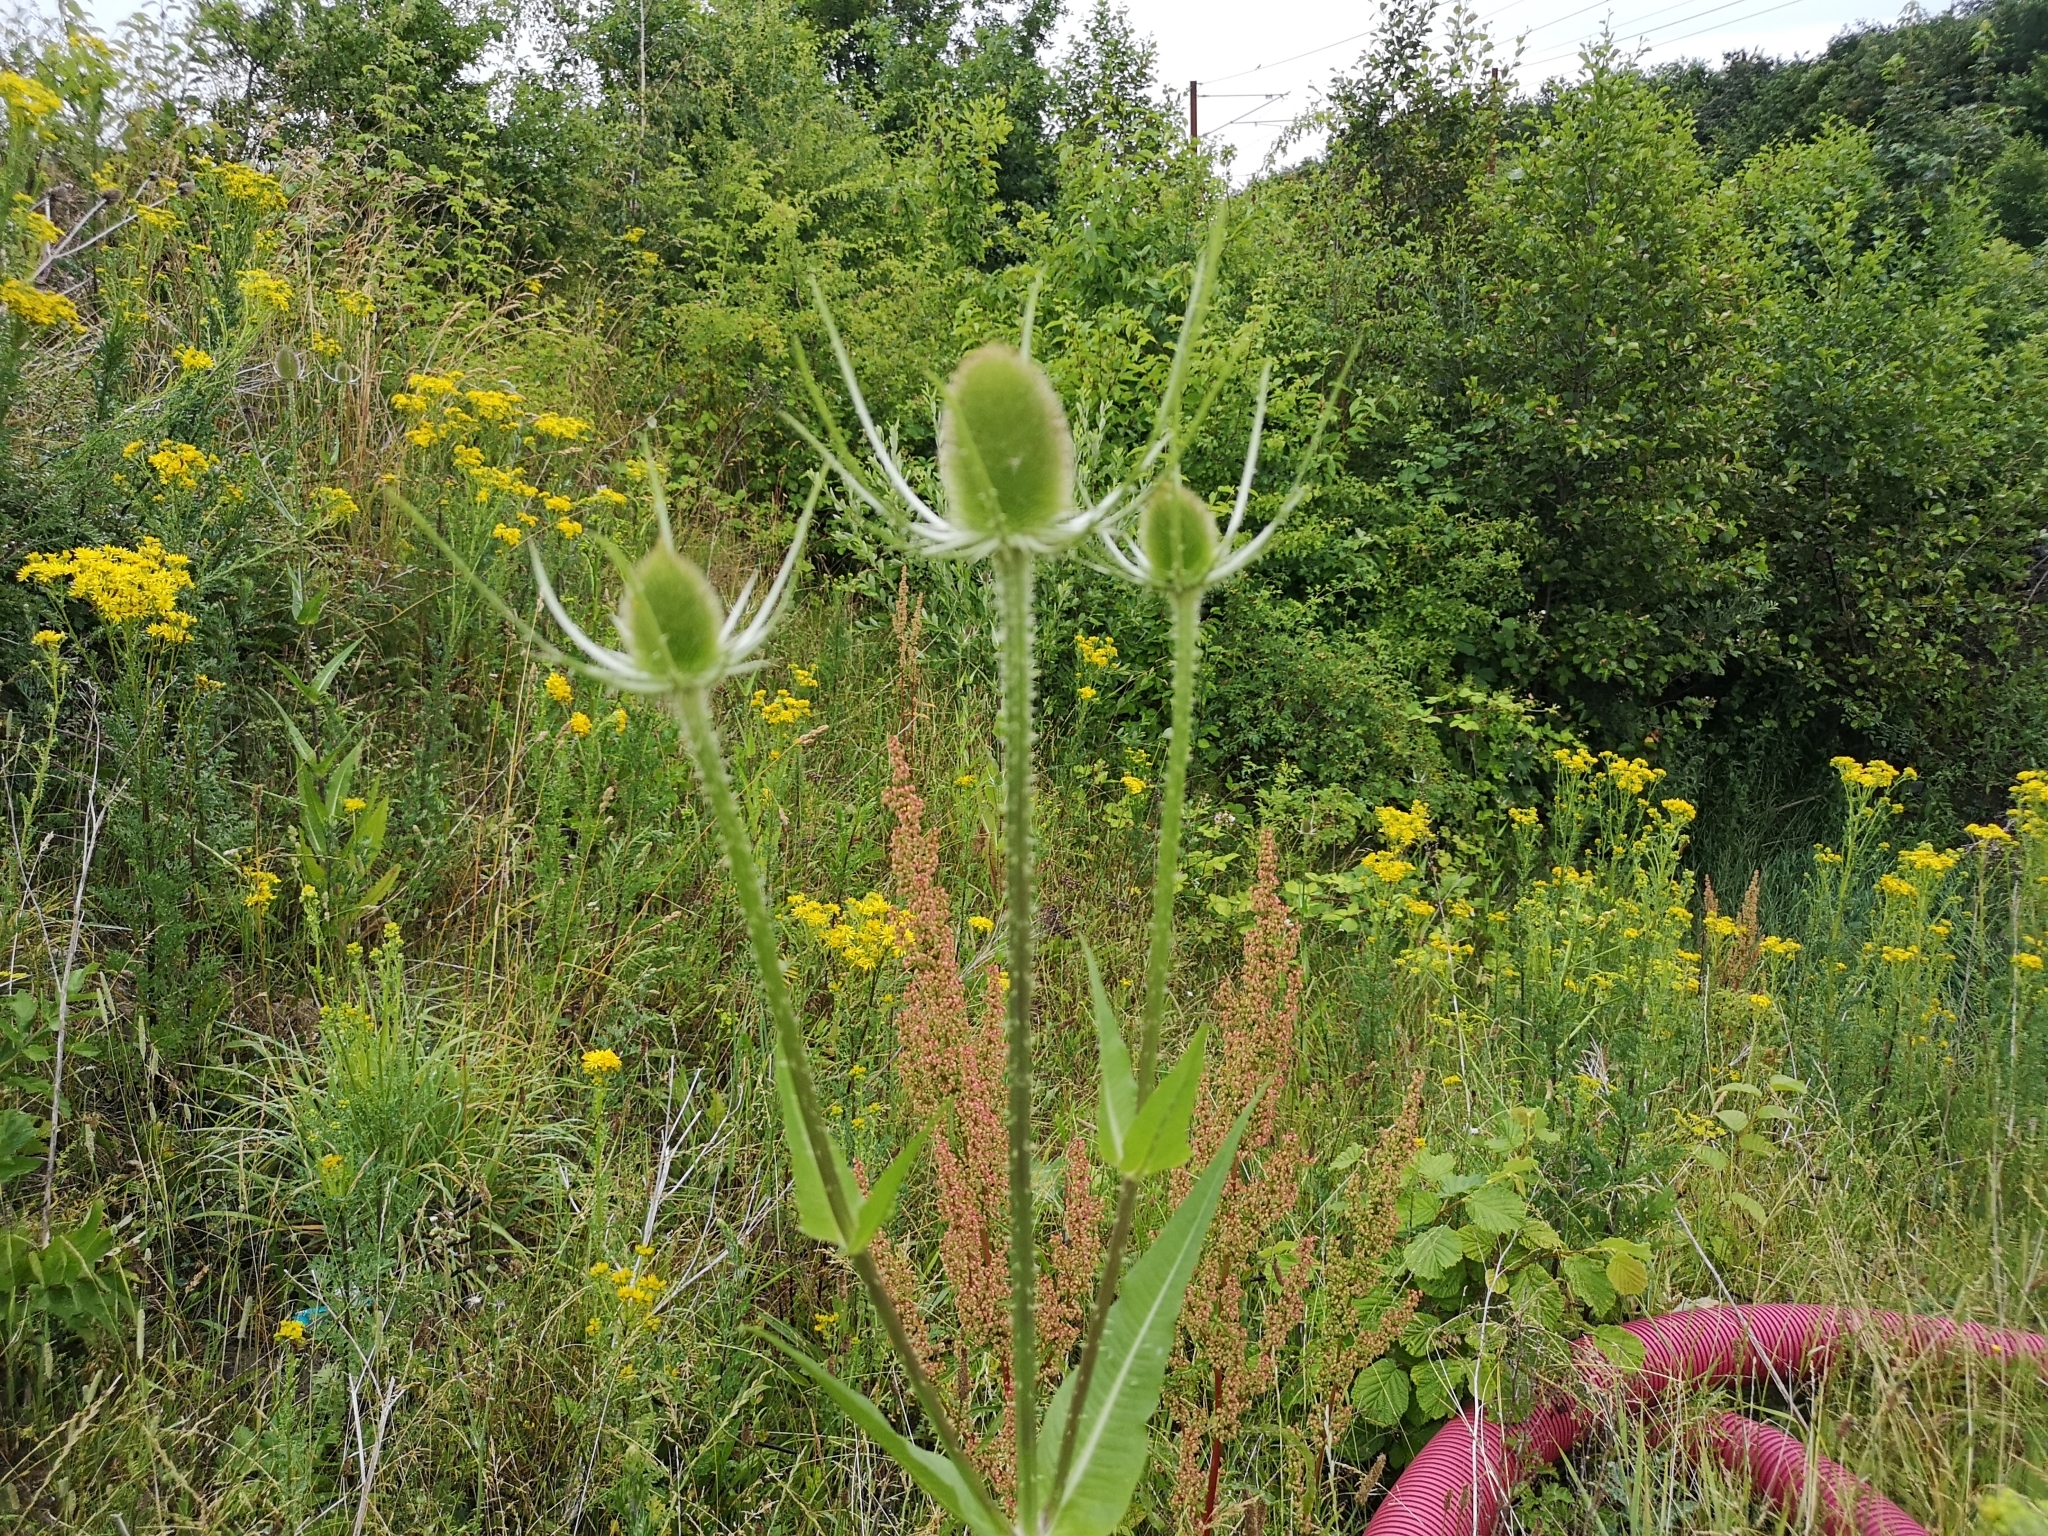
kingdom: Plantae
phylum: Tracheophyta
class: Magnoliopsida
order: Dipsacales
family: Caprifoliaceae
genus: Dipsacus
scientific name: Dipsacus fullonum
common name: Teasel
